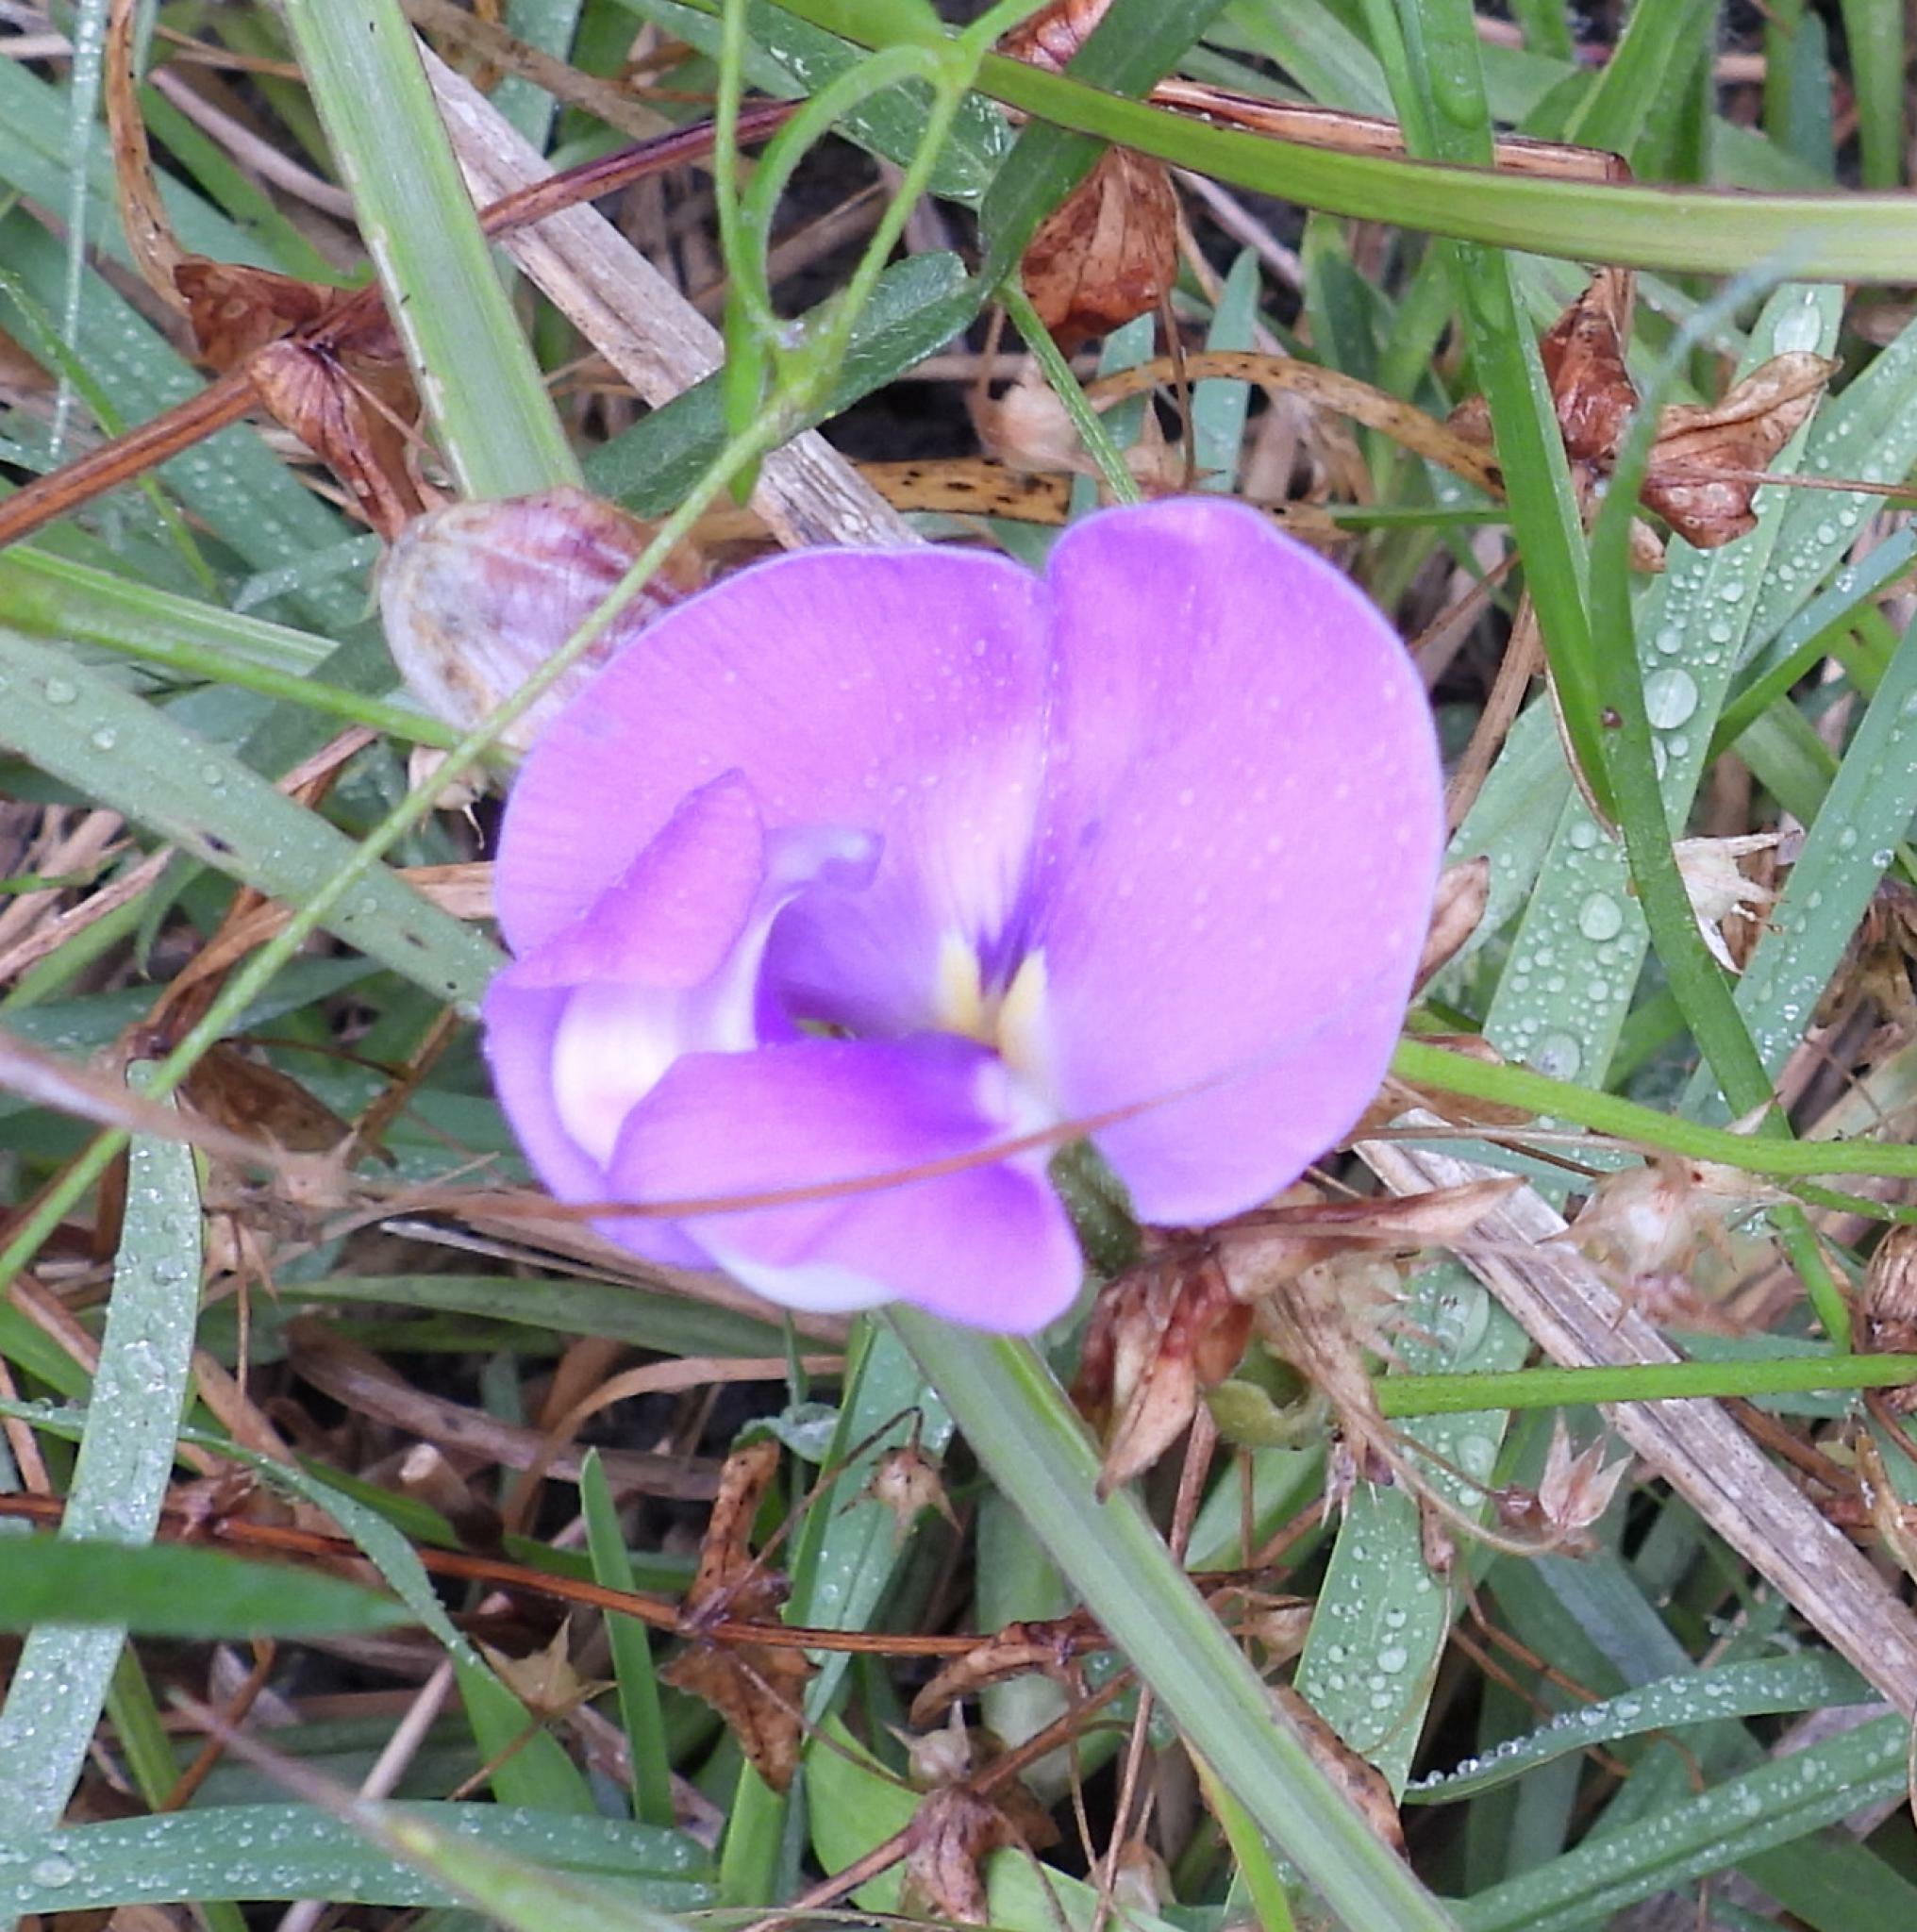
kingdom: Plantae
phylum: Tracheophyta
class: Magnoliopsida
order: Fabales
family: Fabaceae
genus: Vigna
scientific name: Vigna vexillata
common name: Zombi pea
